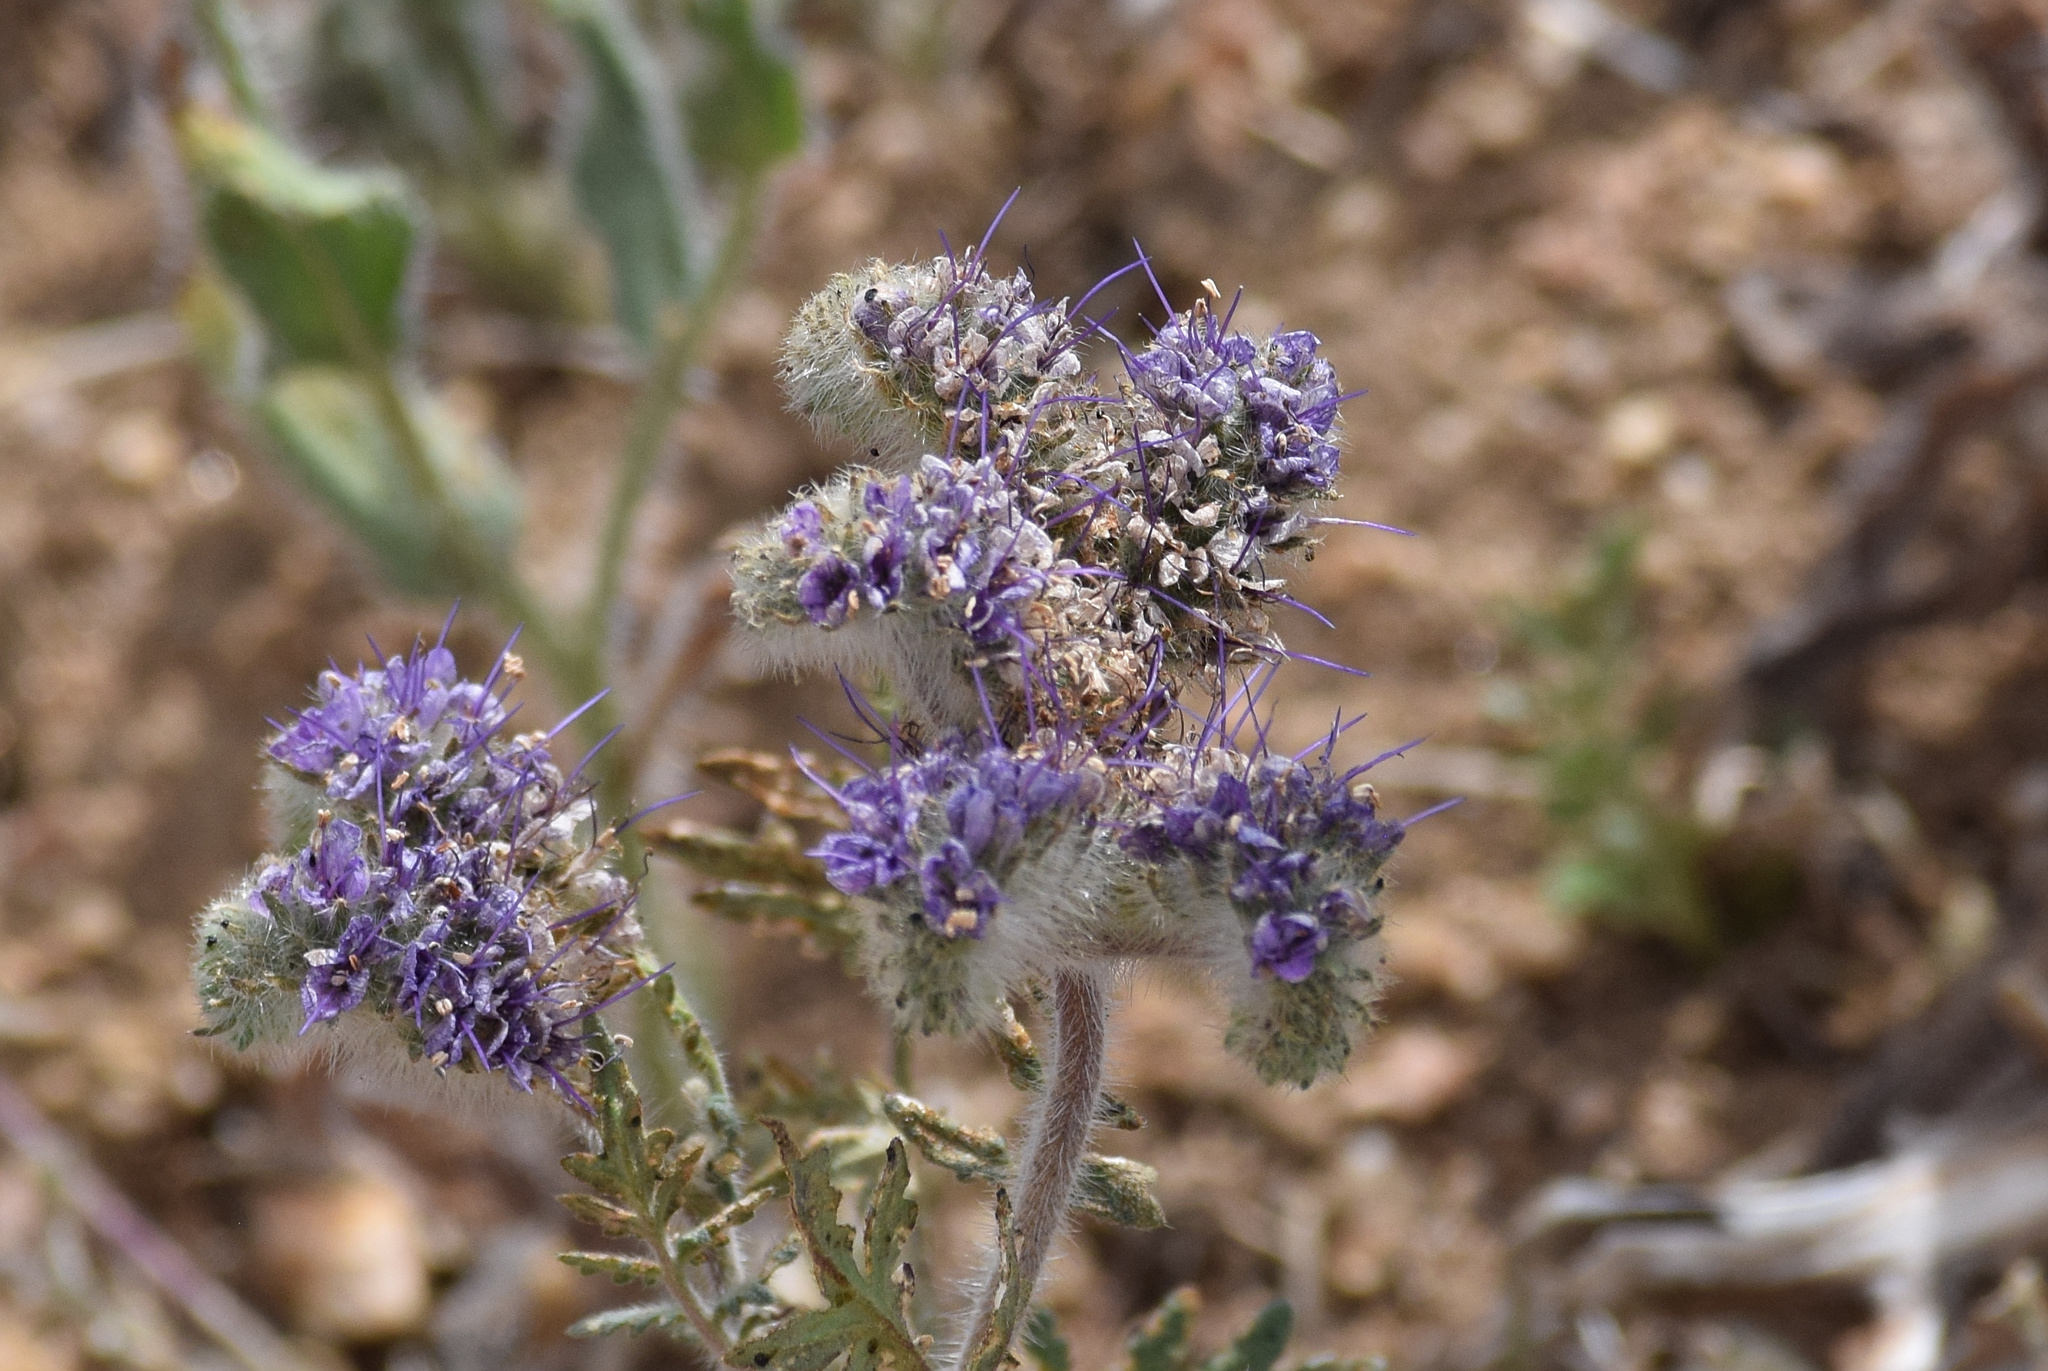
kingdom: Plantae
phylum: Tracheophyta
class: Magnoliopsida
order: Boraginales
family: Hydrophyllaceae
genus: Phacelia
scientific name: Phacelia tanacetifolia
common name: Phacelia
